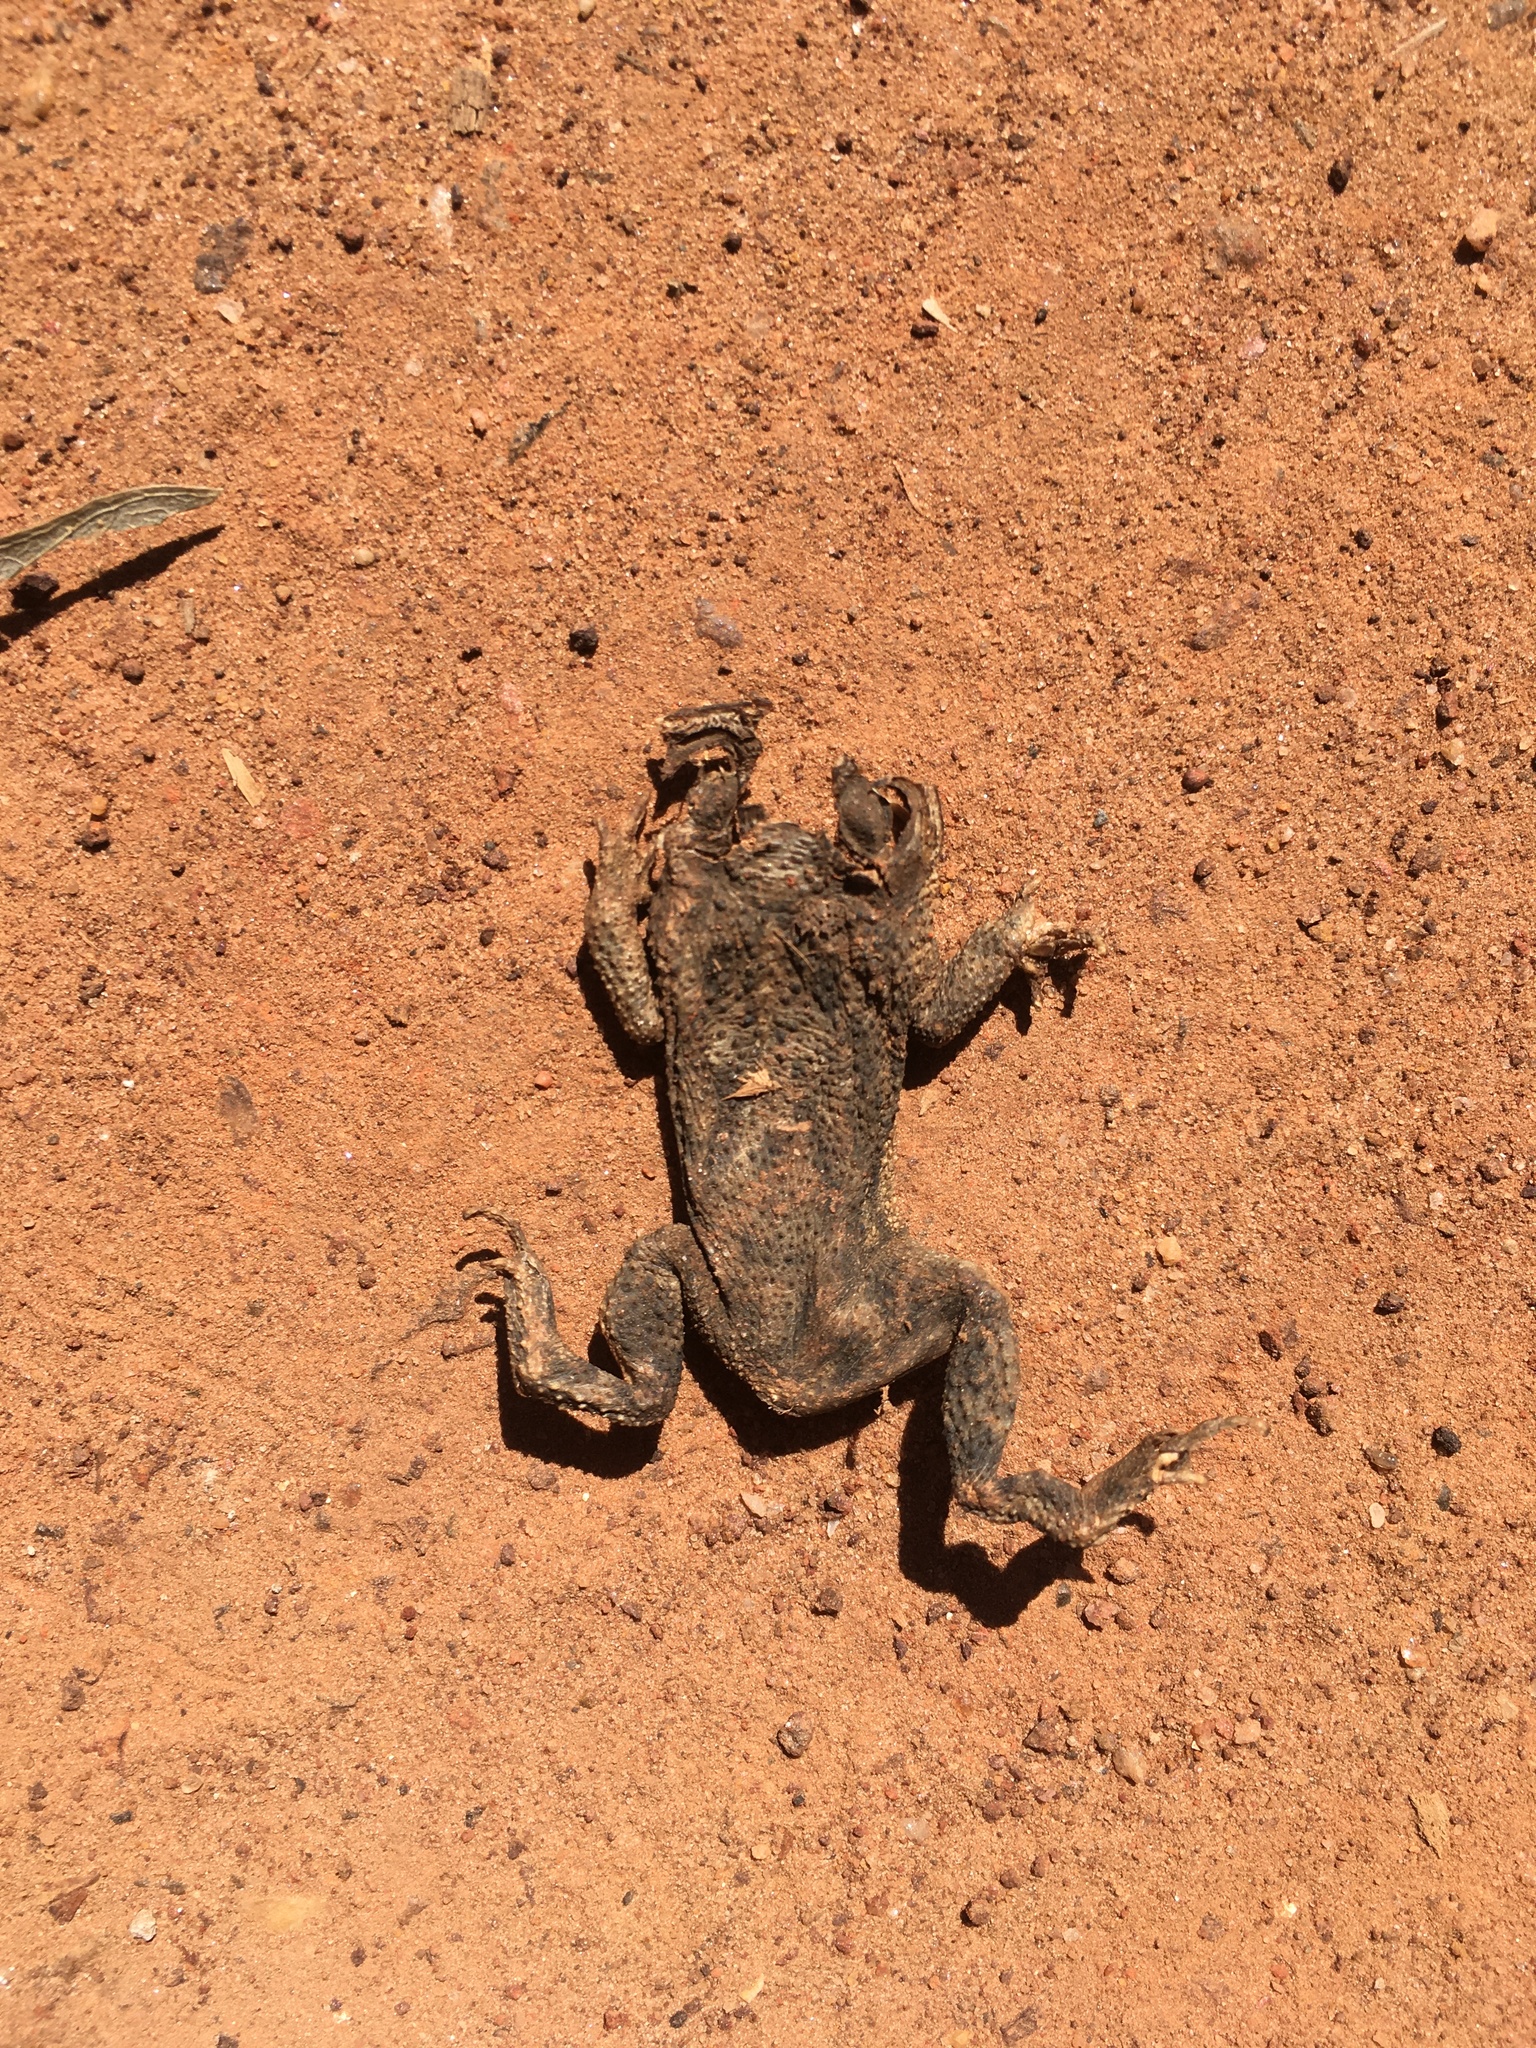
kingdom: Animalia
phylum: Chordata
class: Amphibia
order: Anura
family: Bufonidae
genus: Rhinella
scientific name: Rhinella bergi
